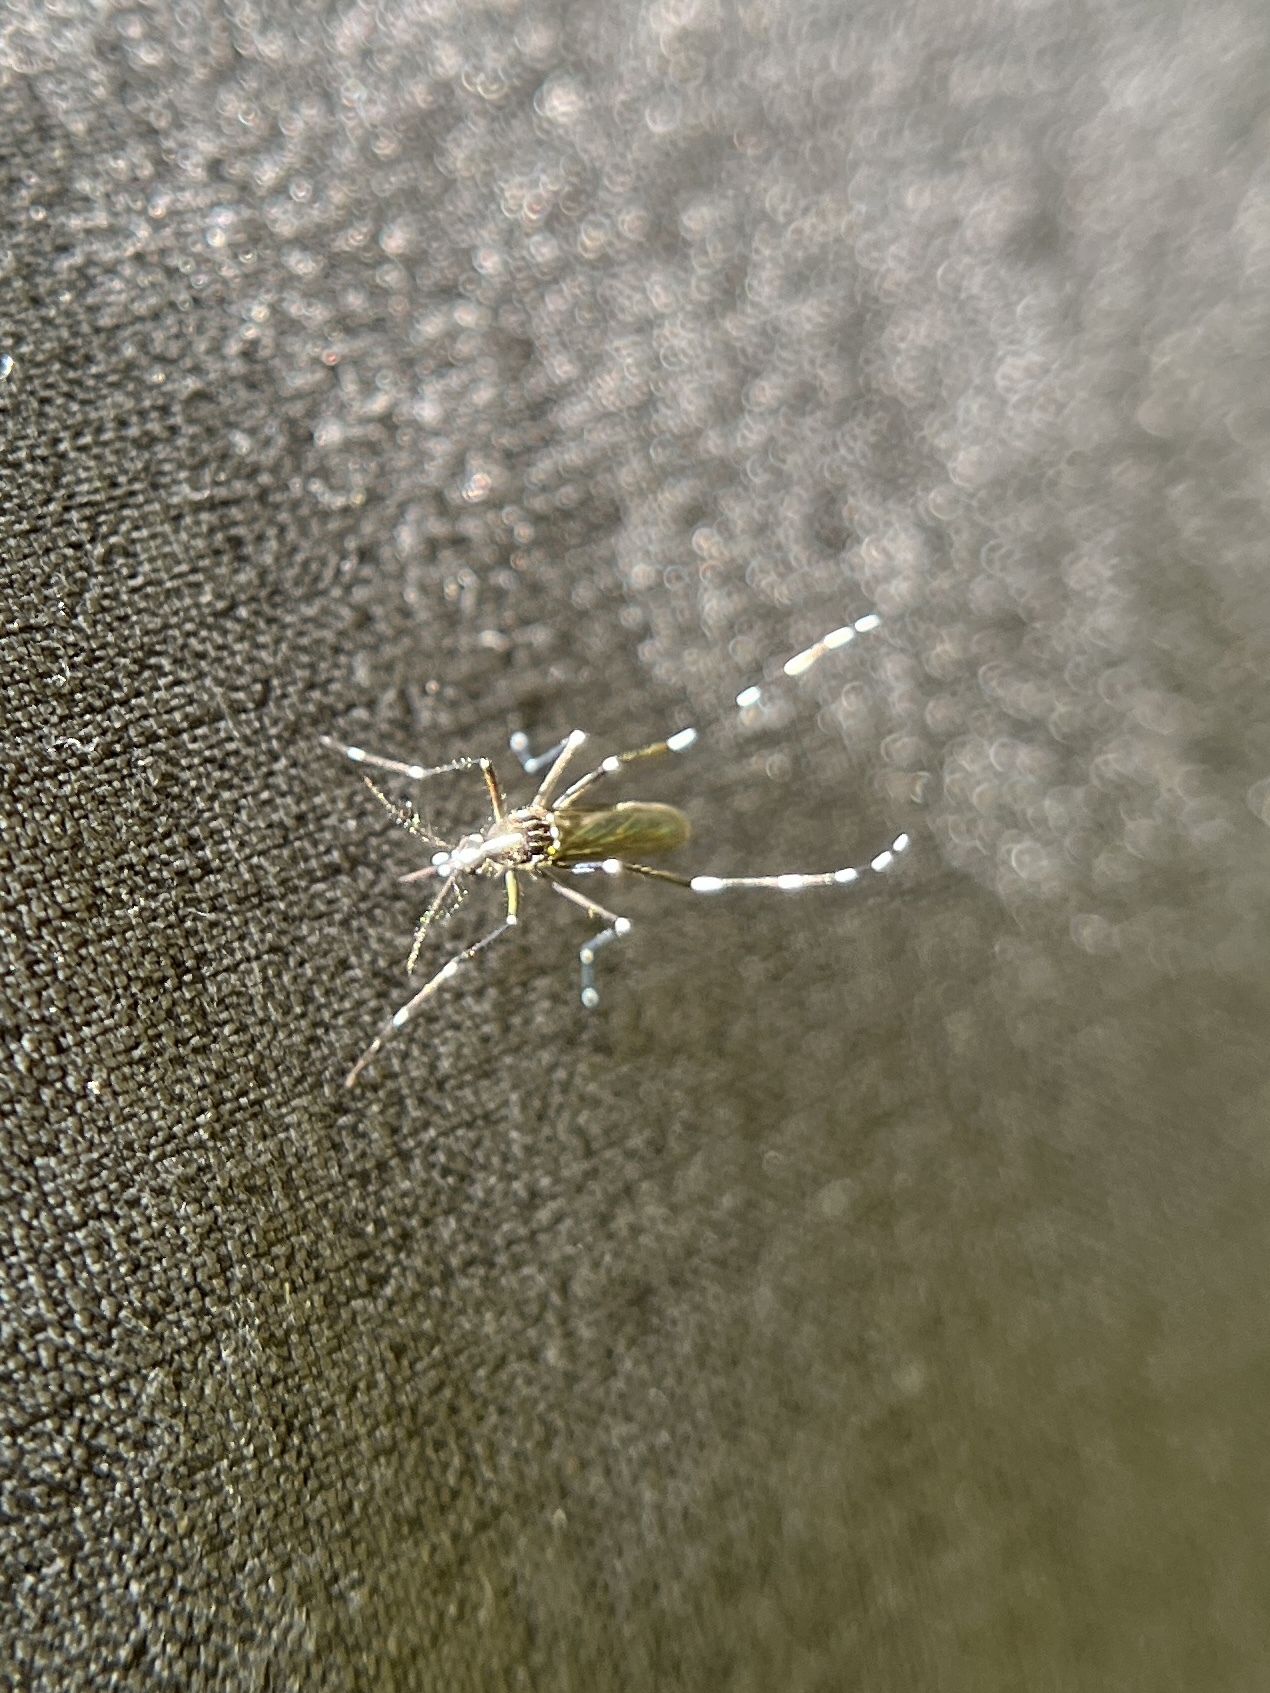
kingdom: Animalia
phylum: Arthropoda
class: Insecta
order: Diptera
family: Culicidae
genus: Aedes
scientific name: Aedes albopictus
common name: Tiger mosquito
